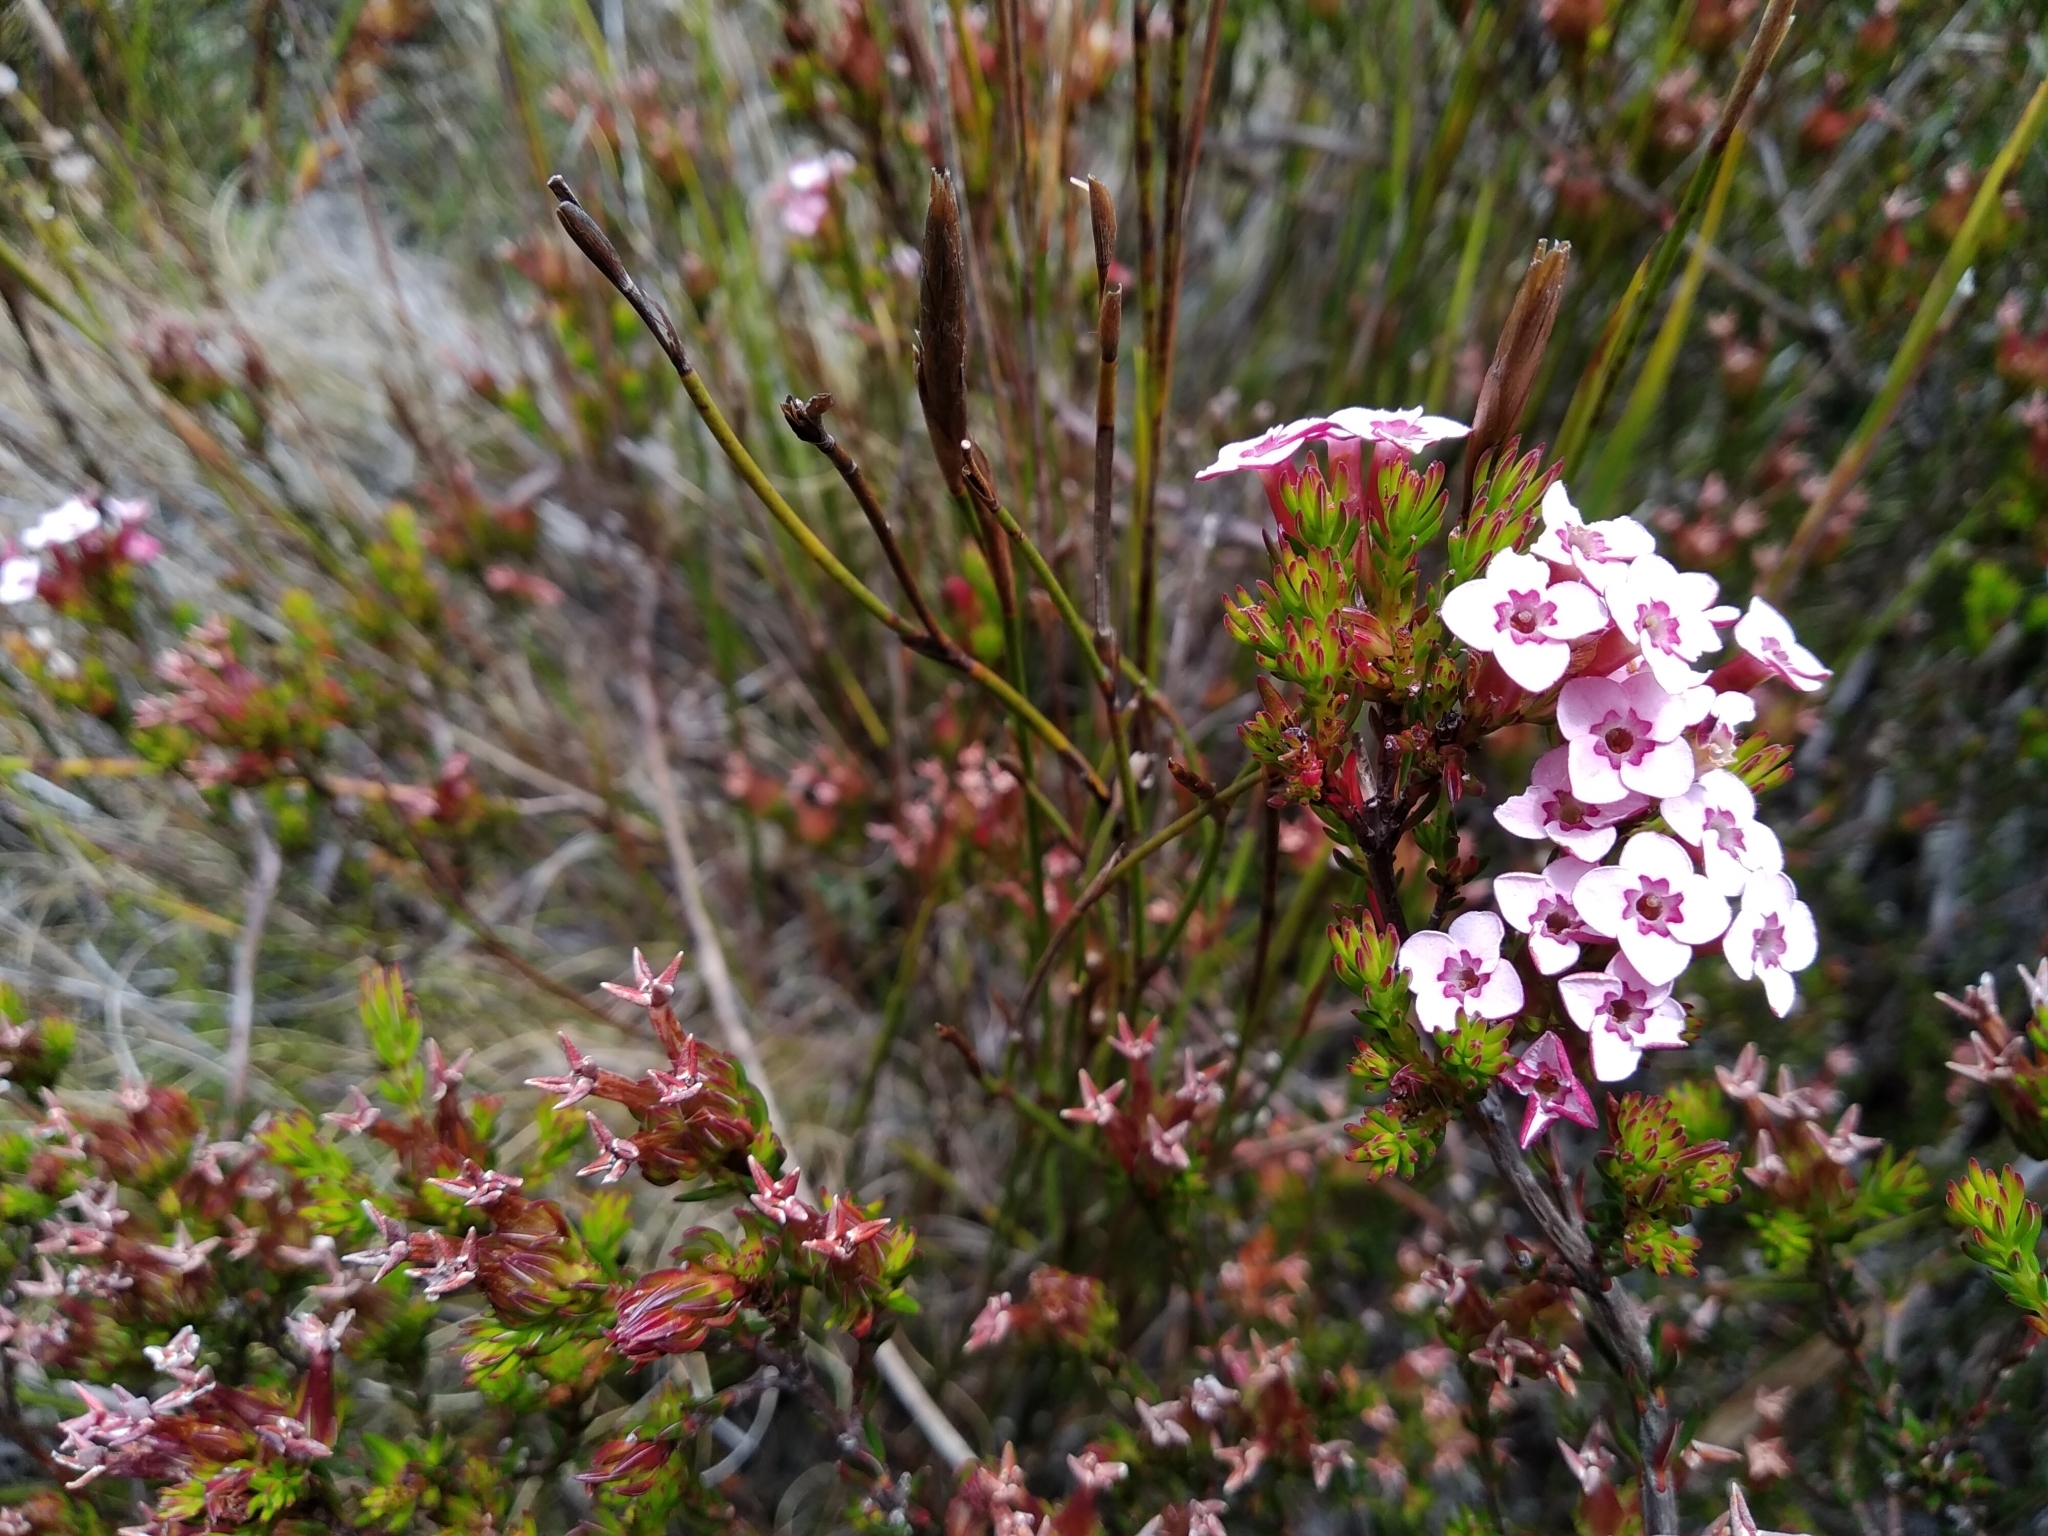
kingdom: Plantae
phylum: Tracheophyta
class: Magnoliopsida
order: Ericales
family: Ericaceae
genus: Erica
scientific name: Erica fastigiata
